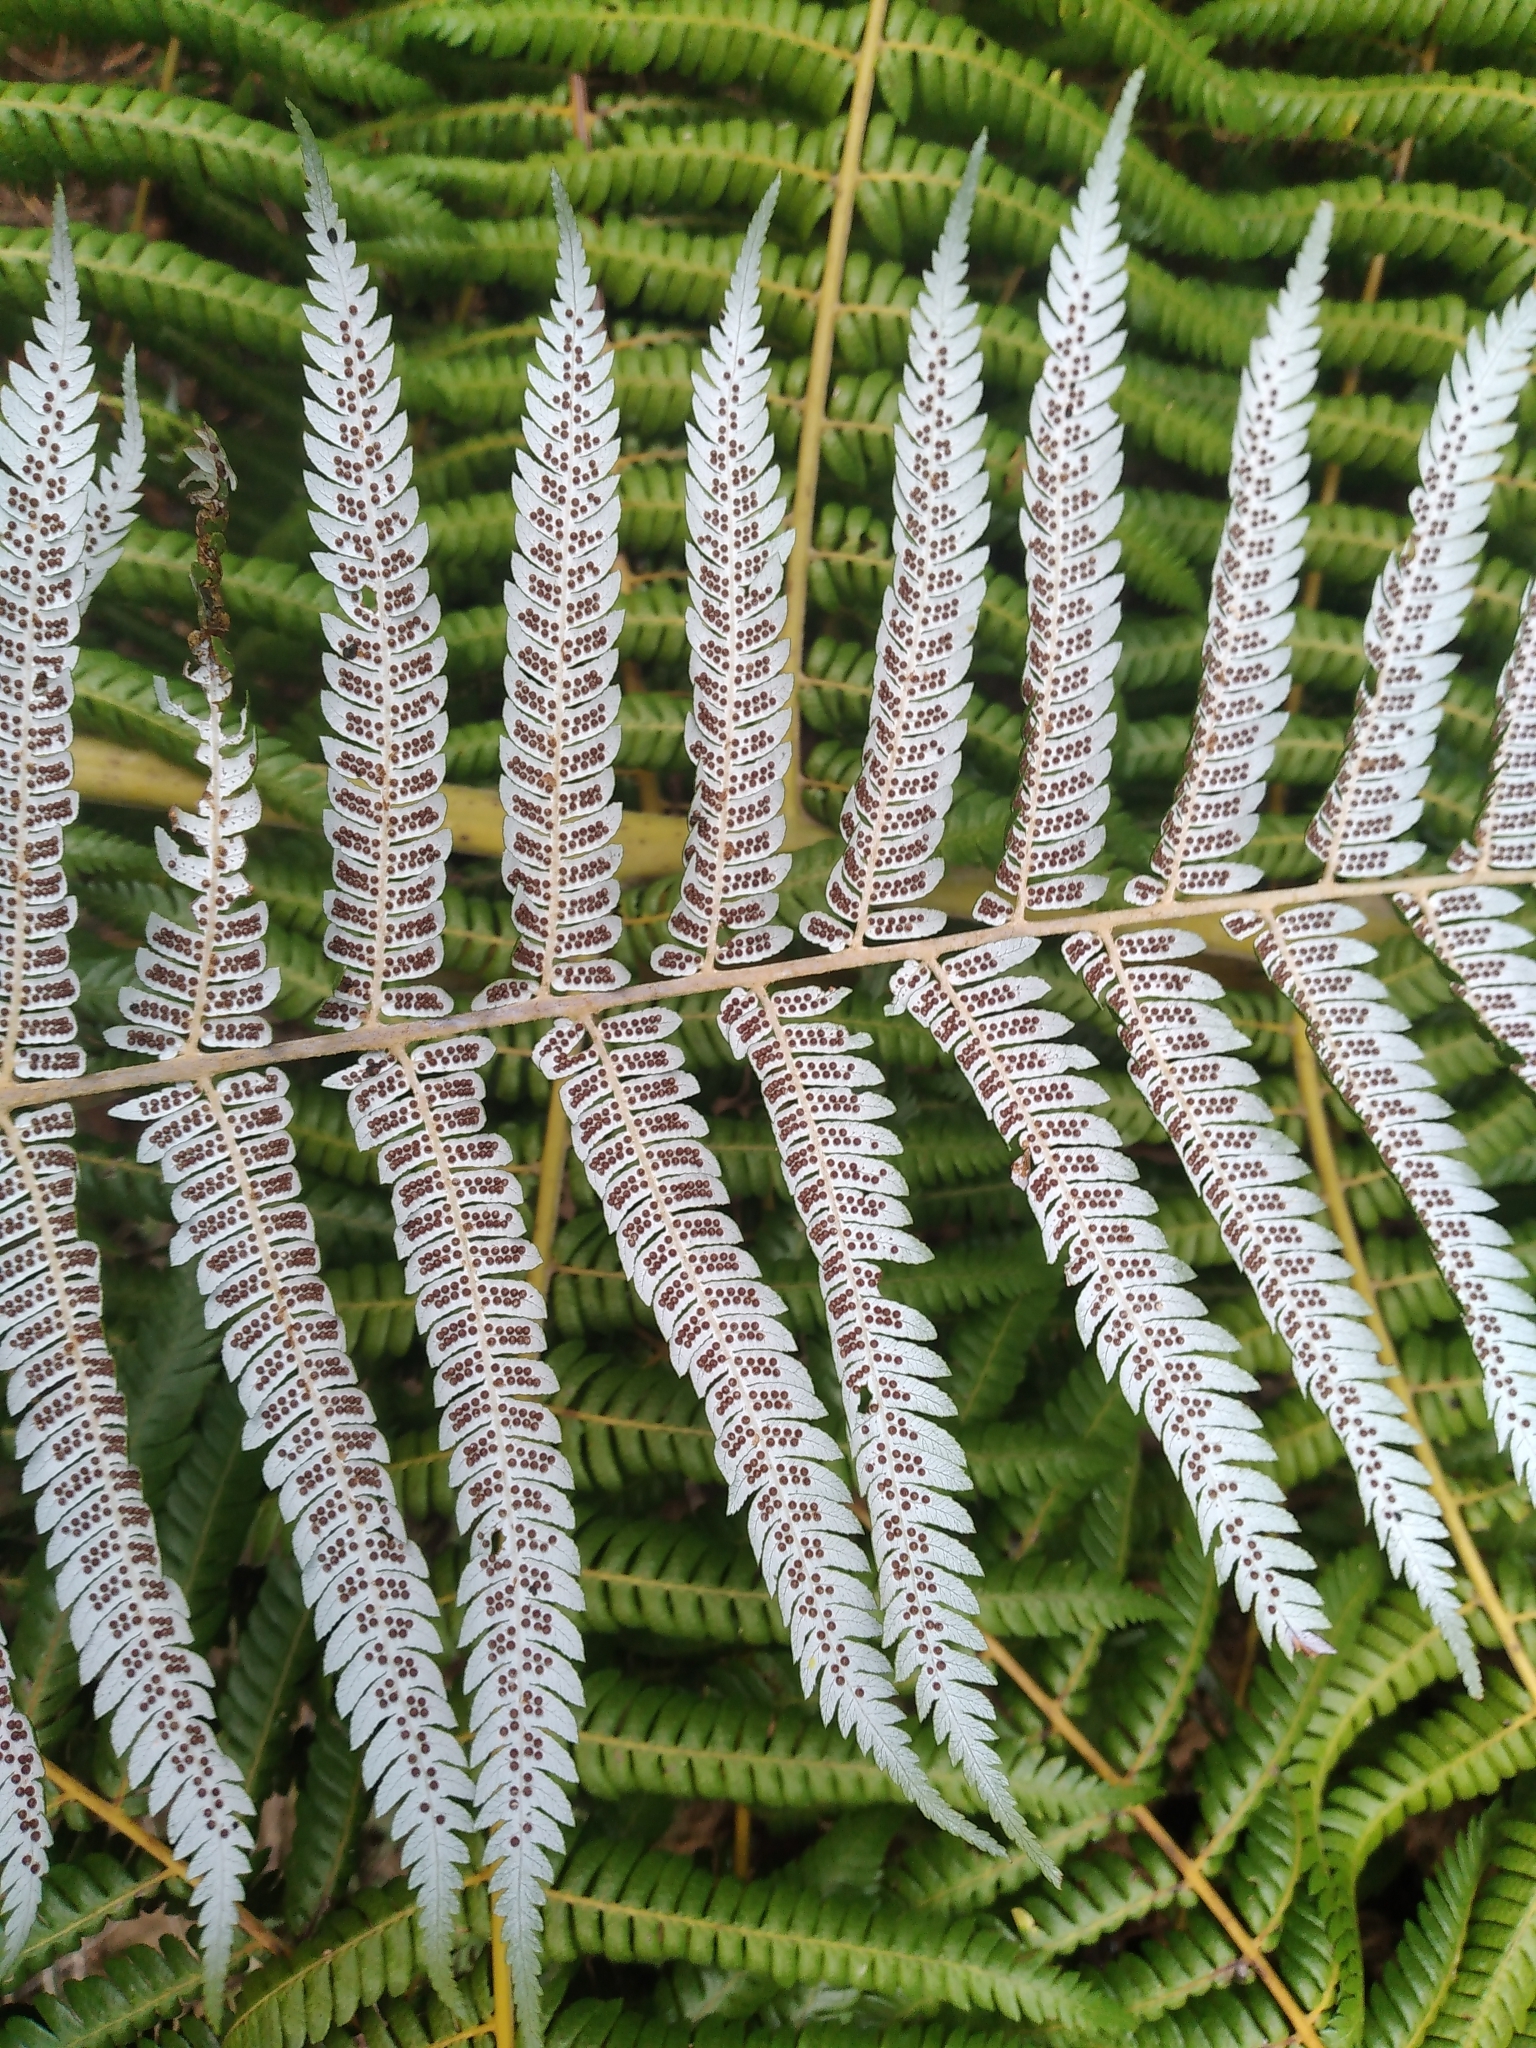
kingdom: Plantae
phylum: Tracheophyta
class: Polypodiopsida
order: Cyatheales
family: Cyatheaceae
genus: Alsophila
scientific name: Alsophila dealbata
